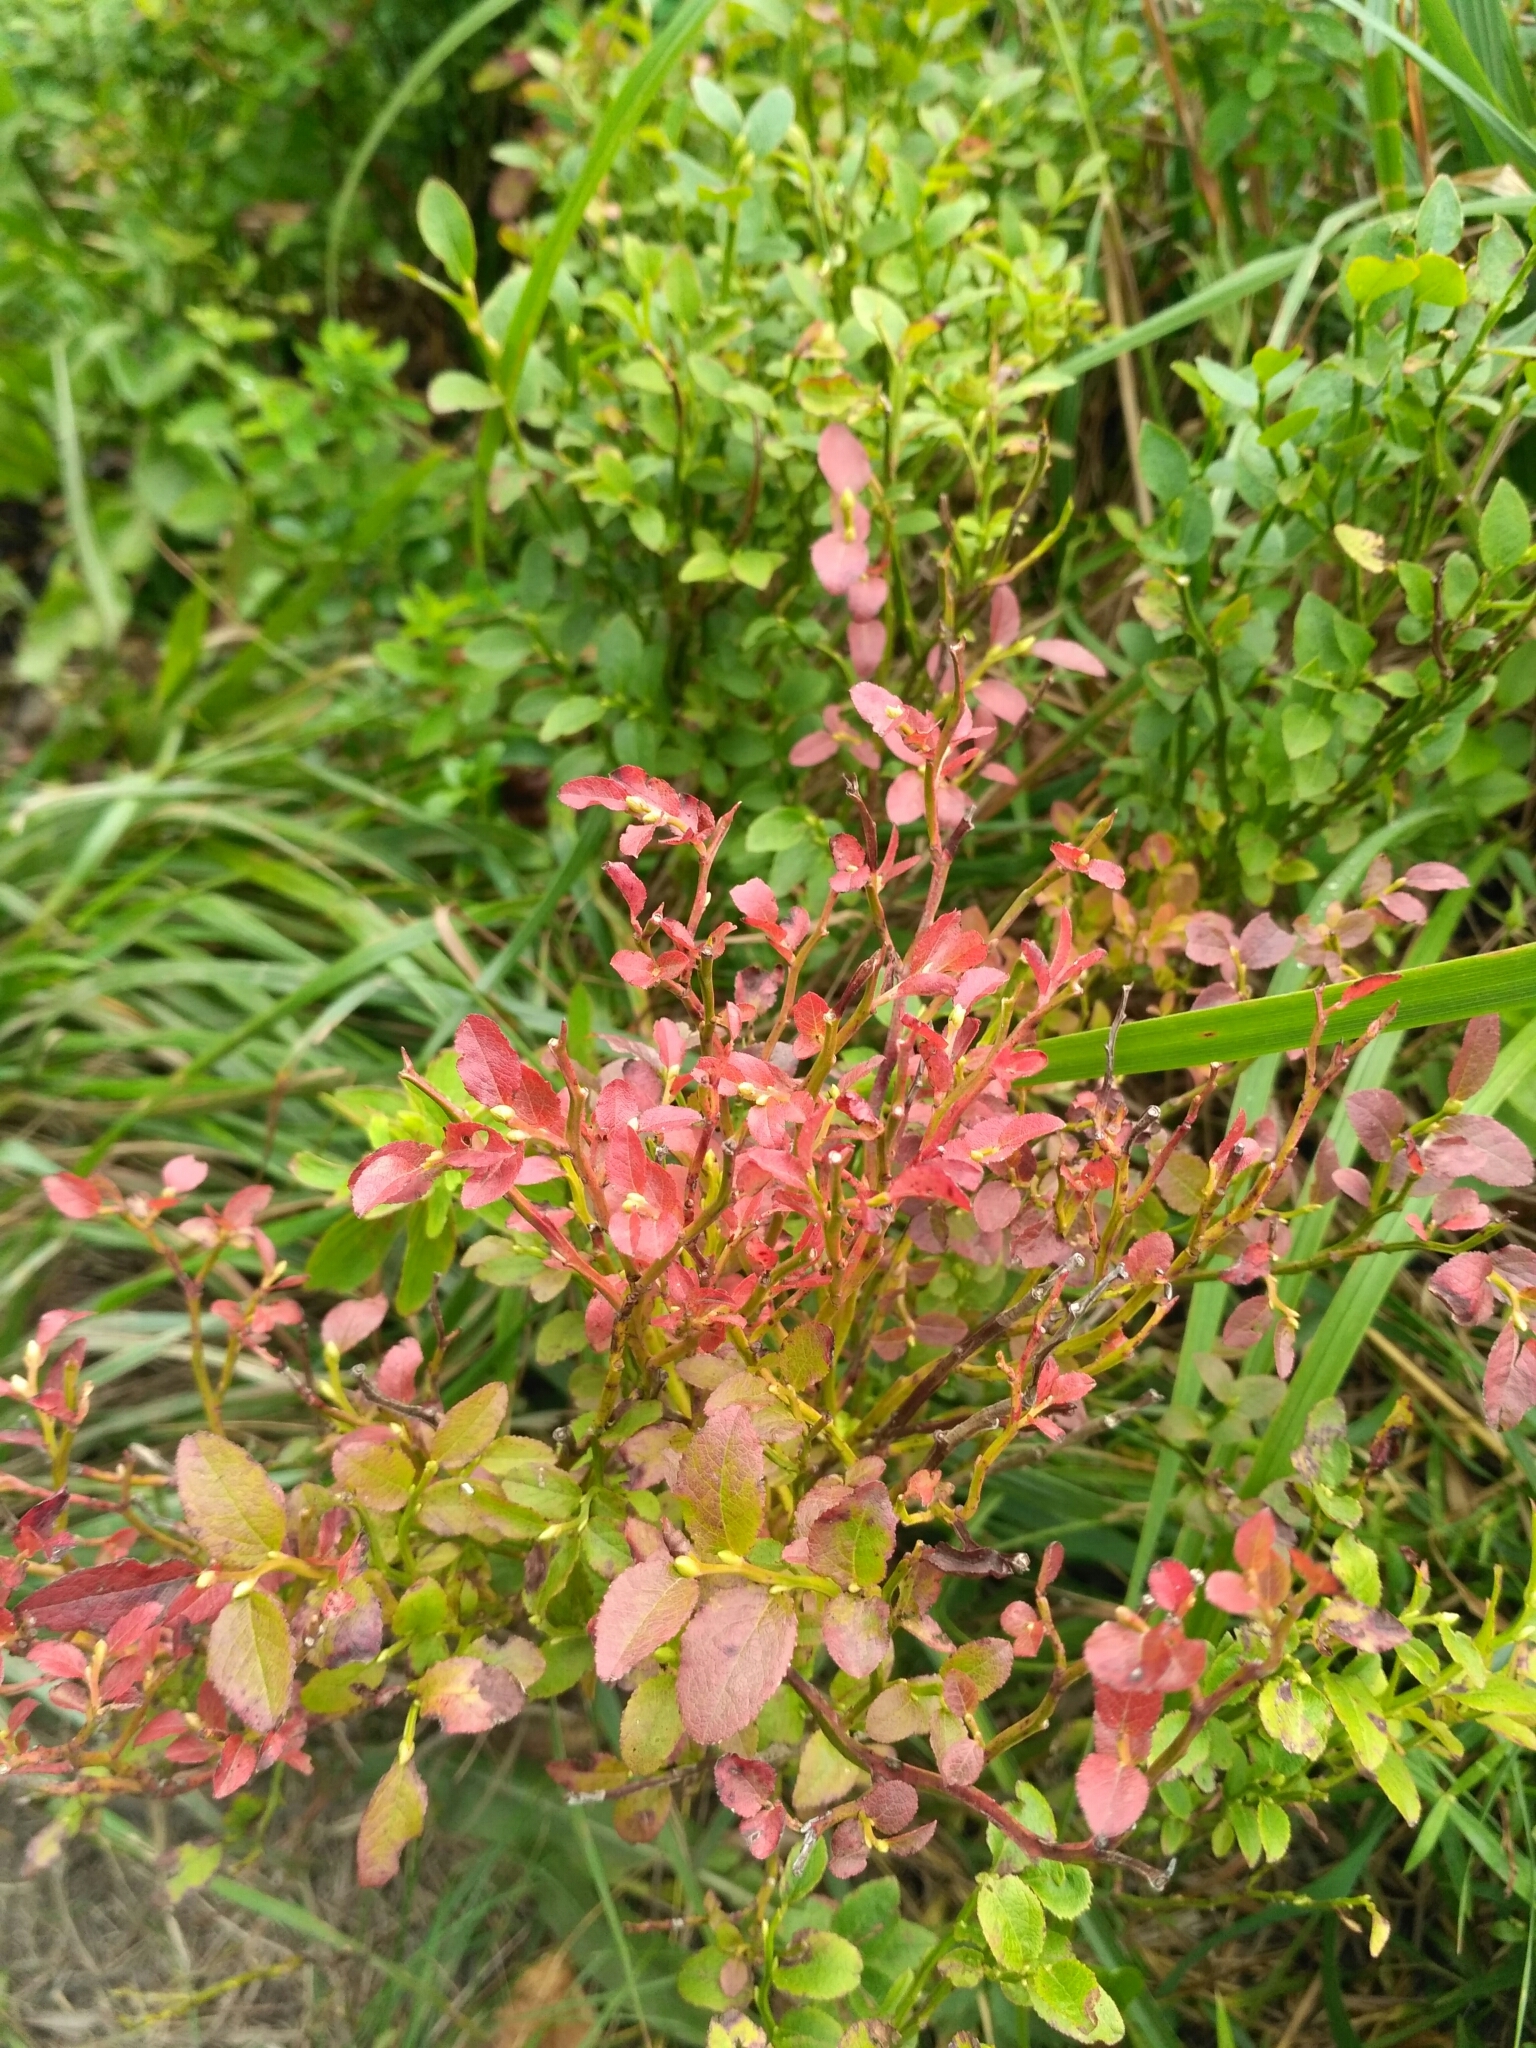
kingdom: Plantae
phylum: Tracheophyta
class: Magnoliopsida
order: Ericales
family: Ericaceae
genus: Vaccinium
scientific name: Vaccinium myrtillus
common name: Bilberry
